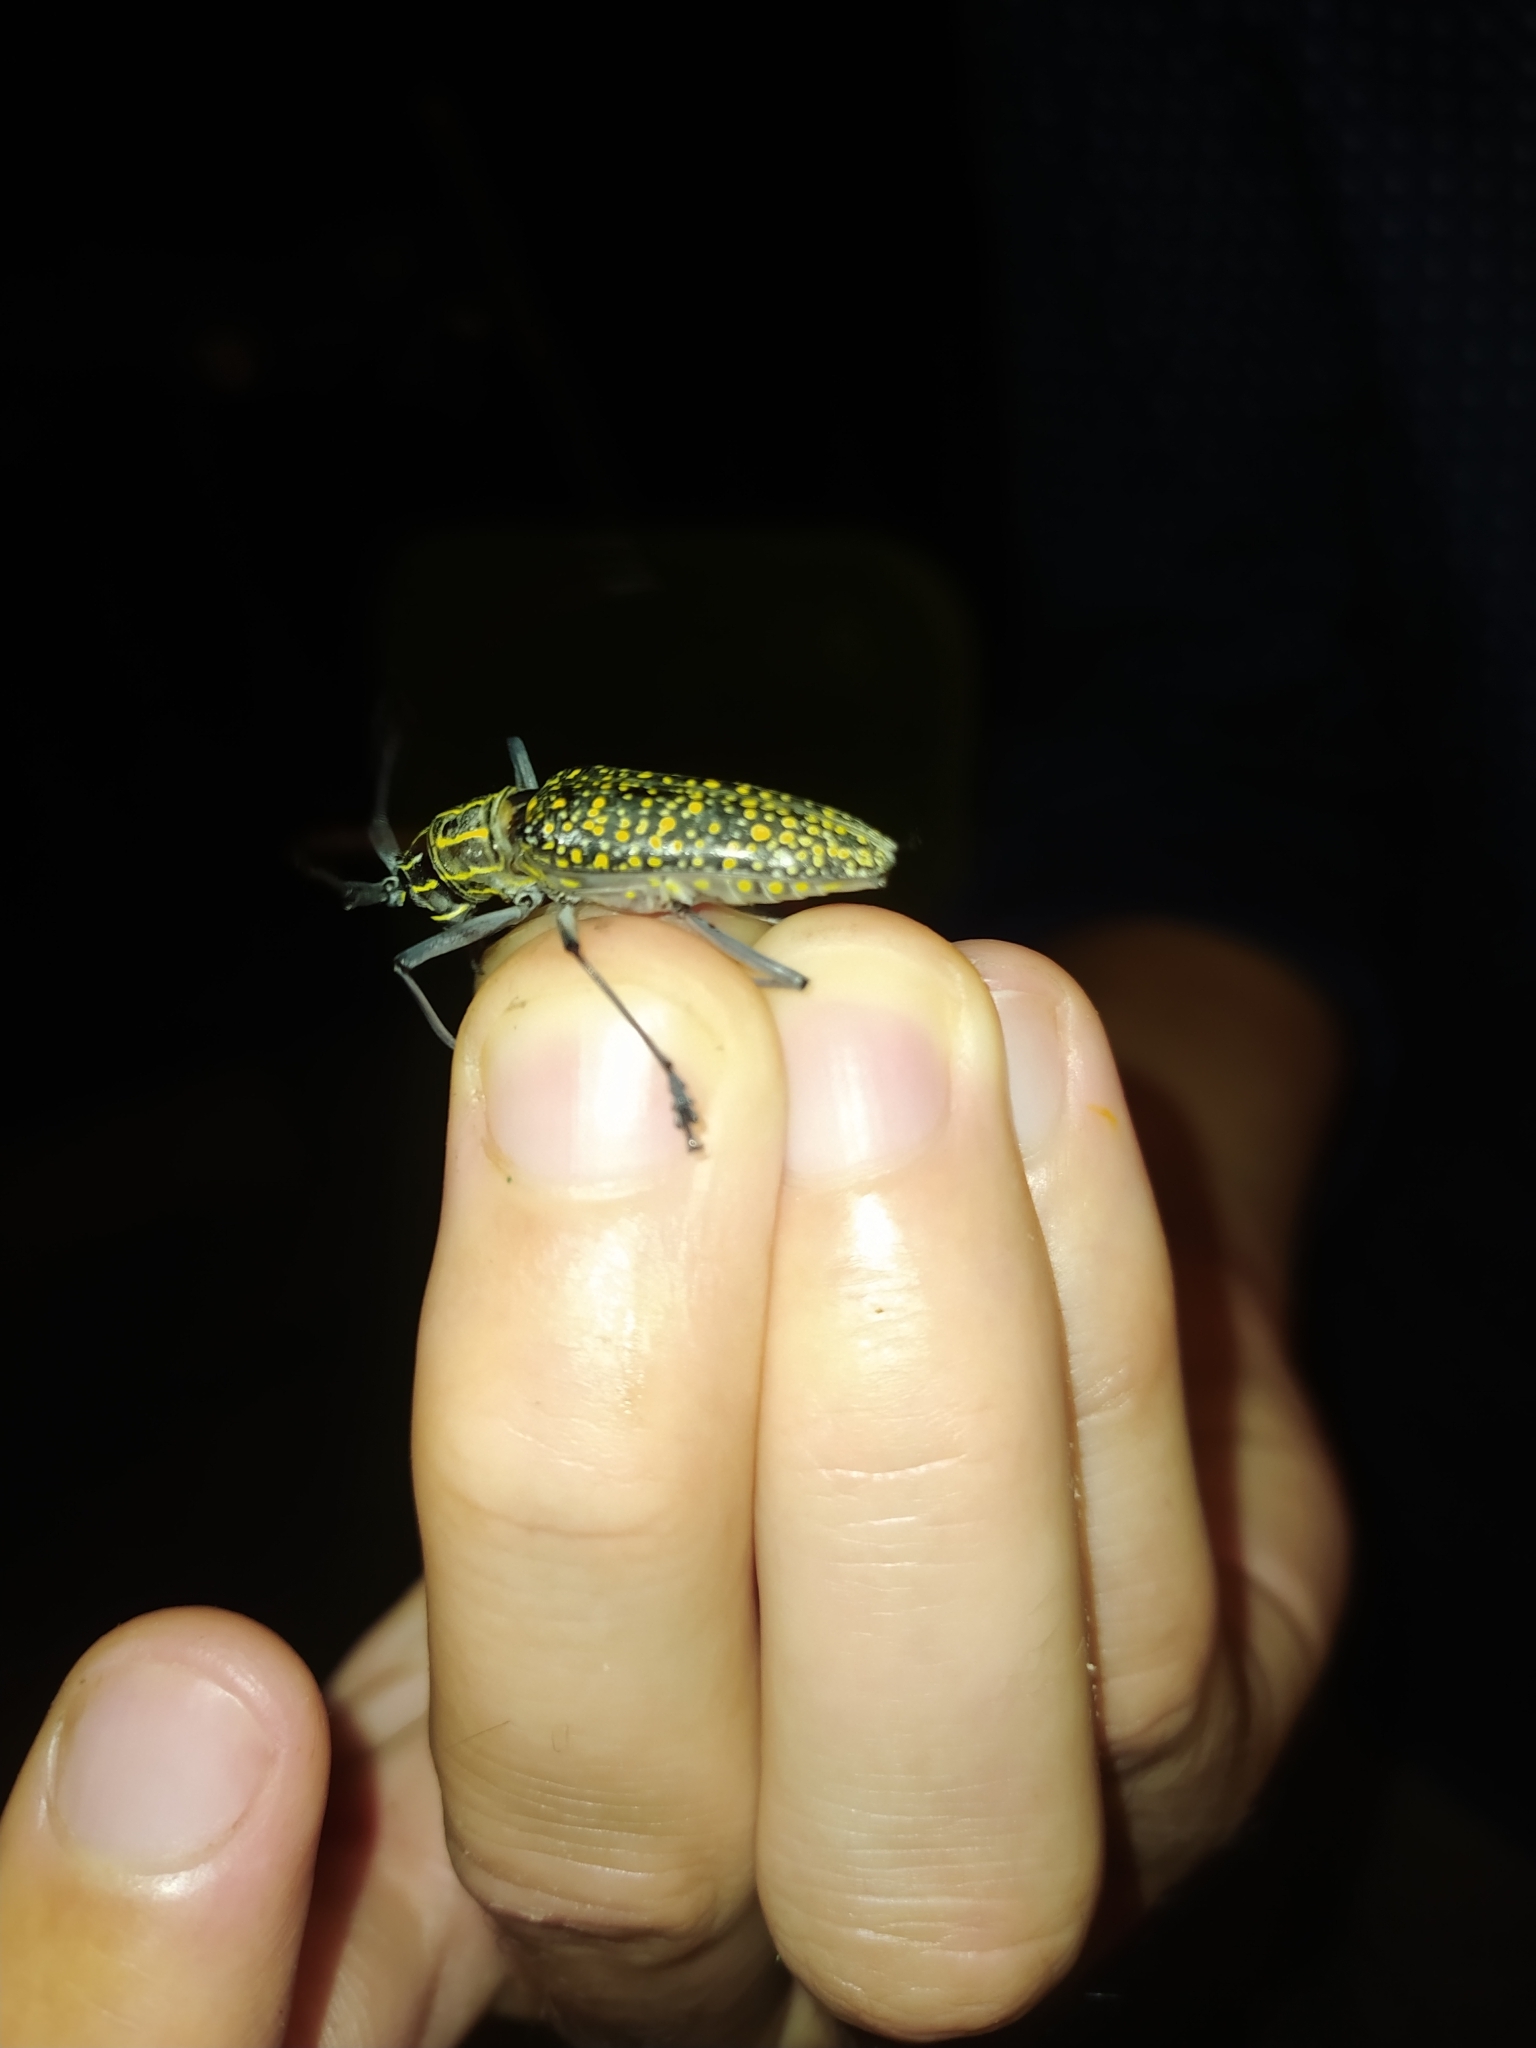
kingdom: Animalia
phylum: Arthropoda
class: Insecta
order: Coleoptera
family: Cerambycidae
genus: Taeniotes
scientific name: Taeniotes pulverulentus
